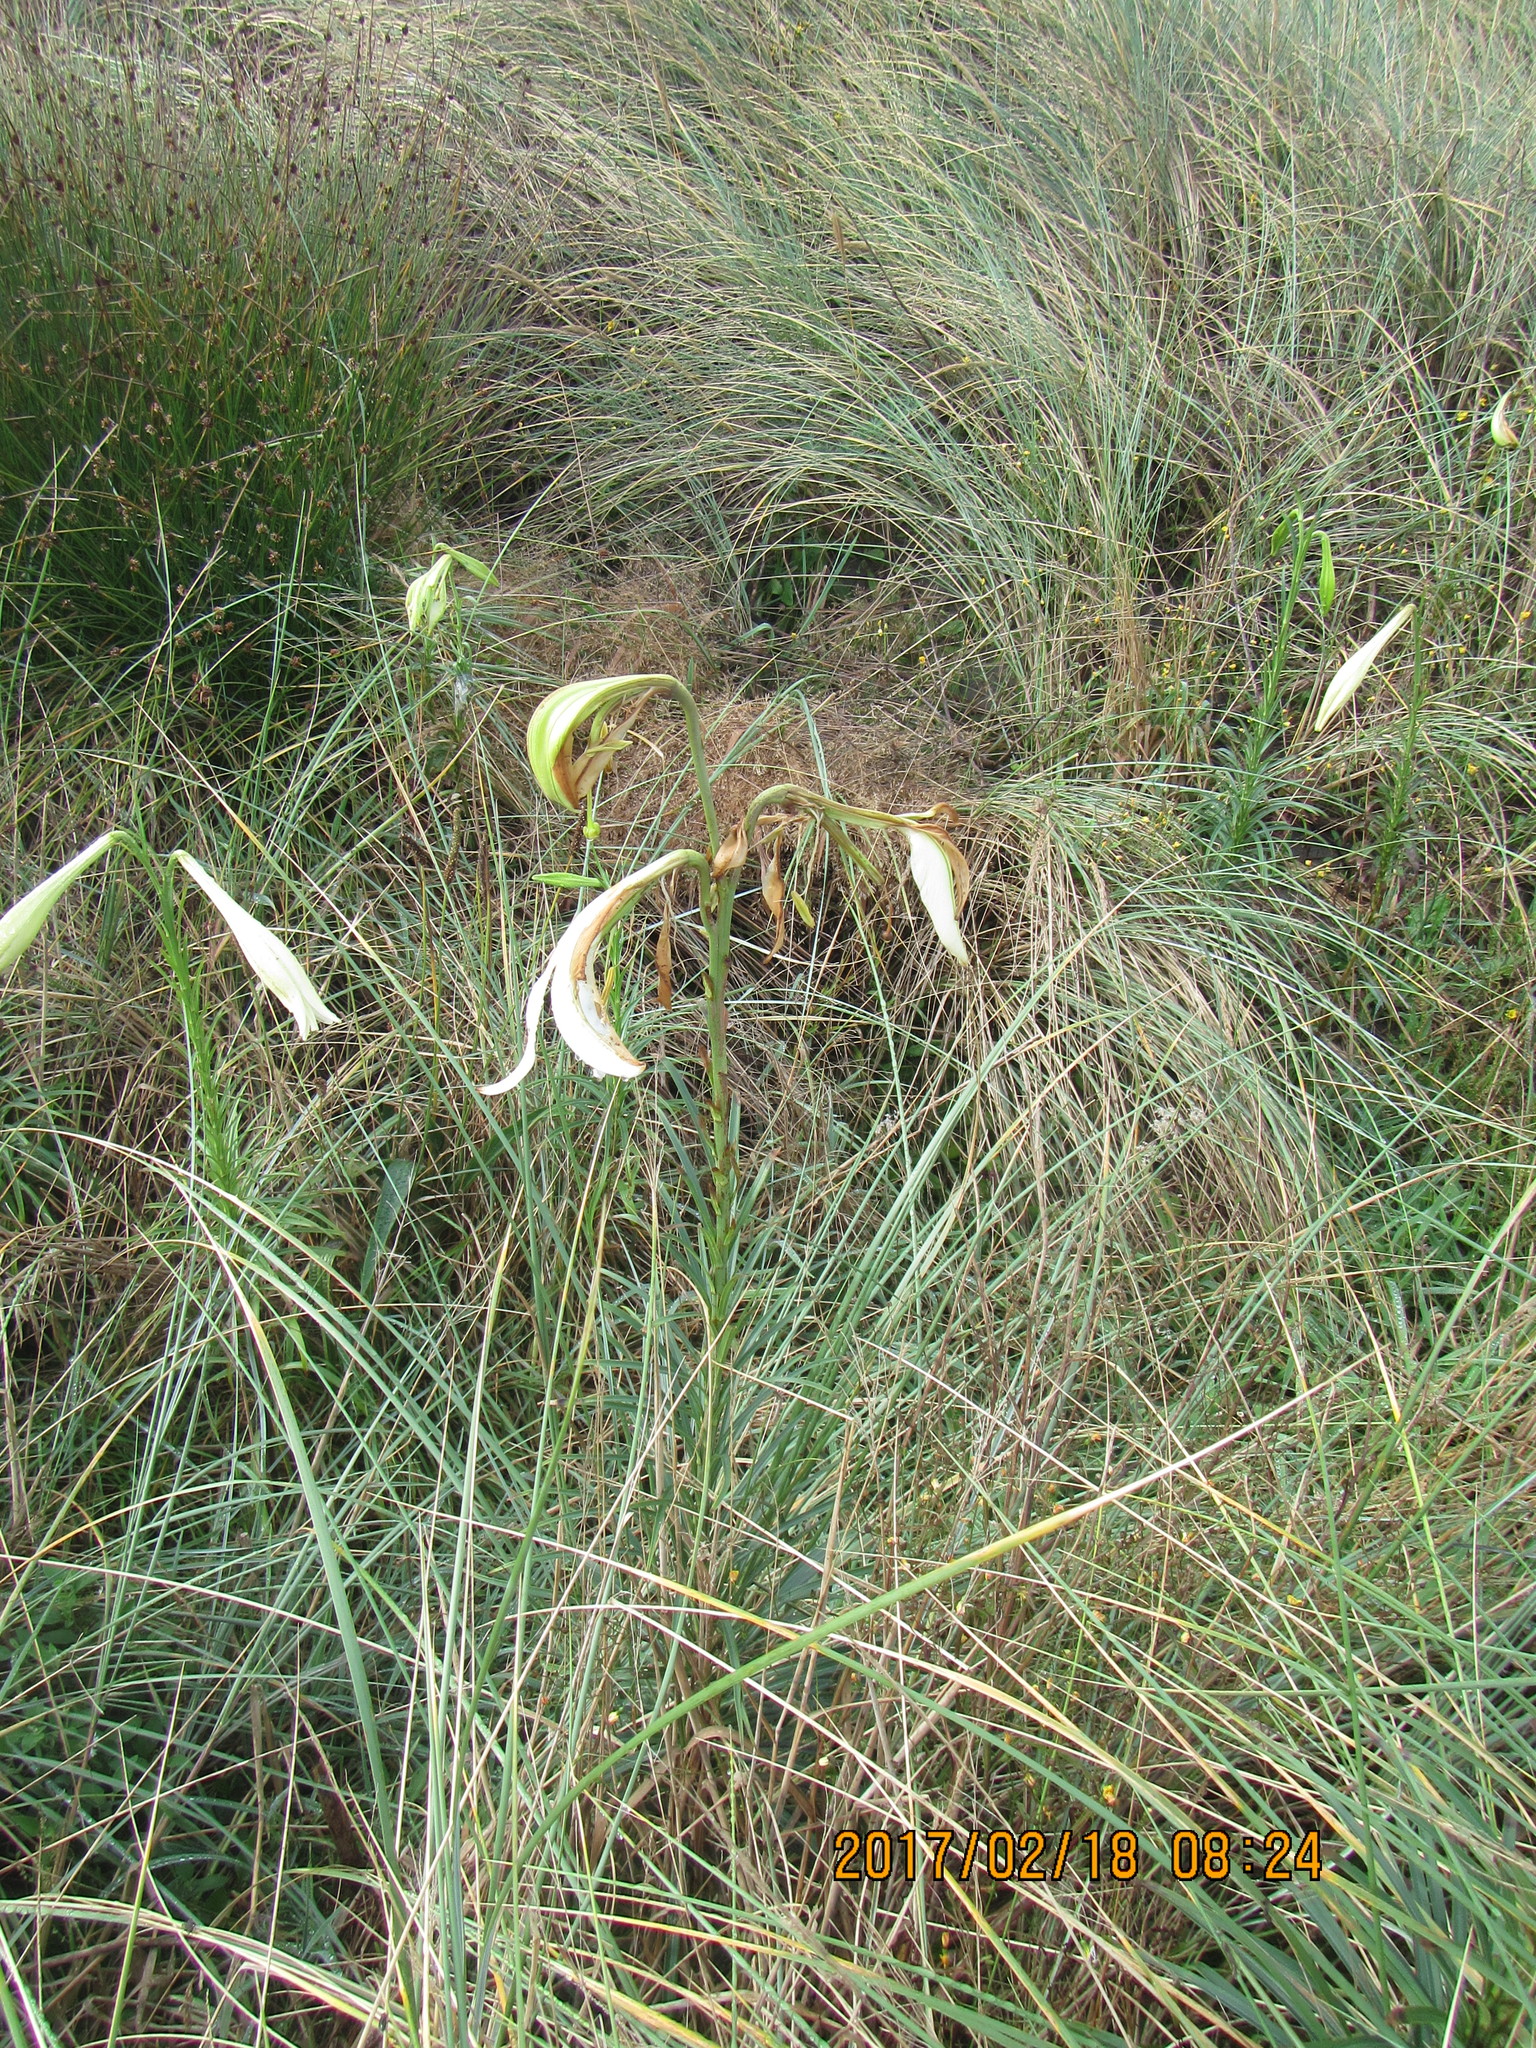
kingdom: Plantae
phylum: Tracheophyta
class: Liliopsida
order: Liliales
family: Liliaceae
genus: Lilium
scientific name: Lilium formosanum
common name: Formosa lily
